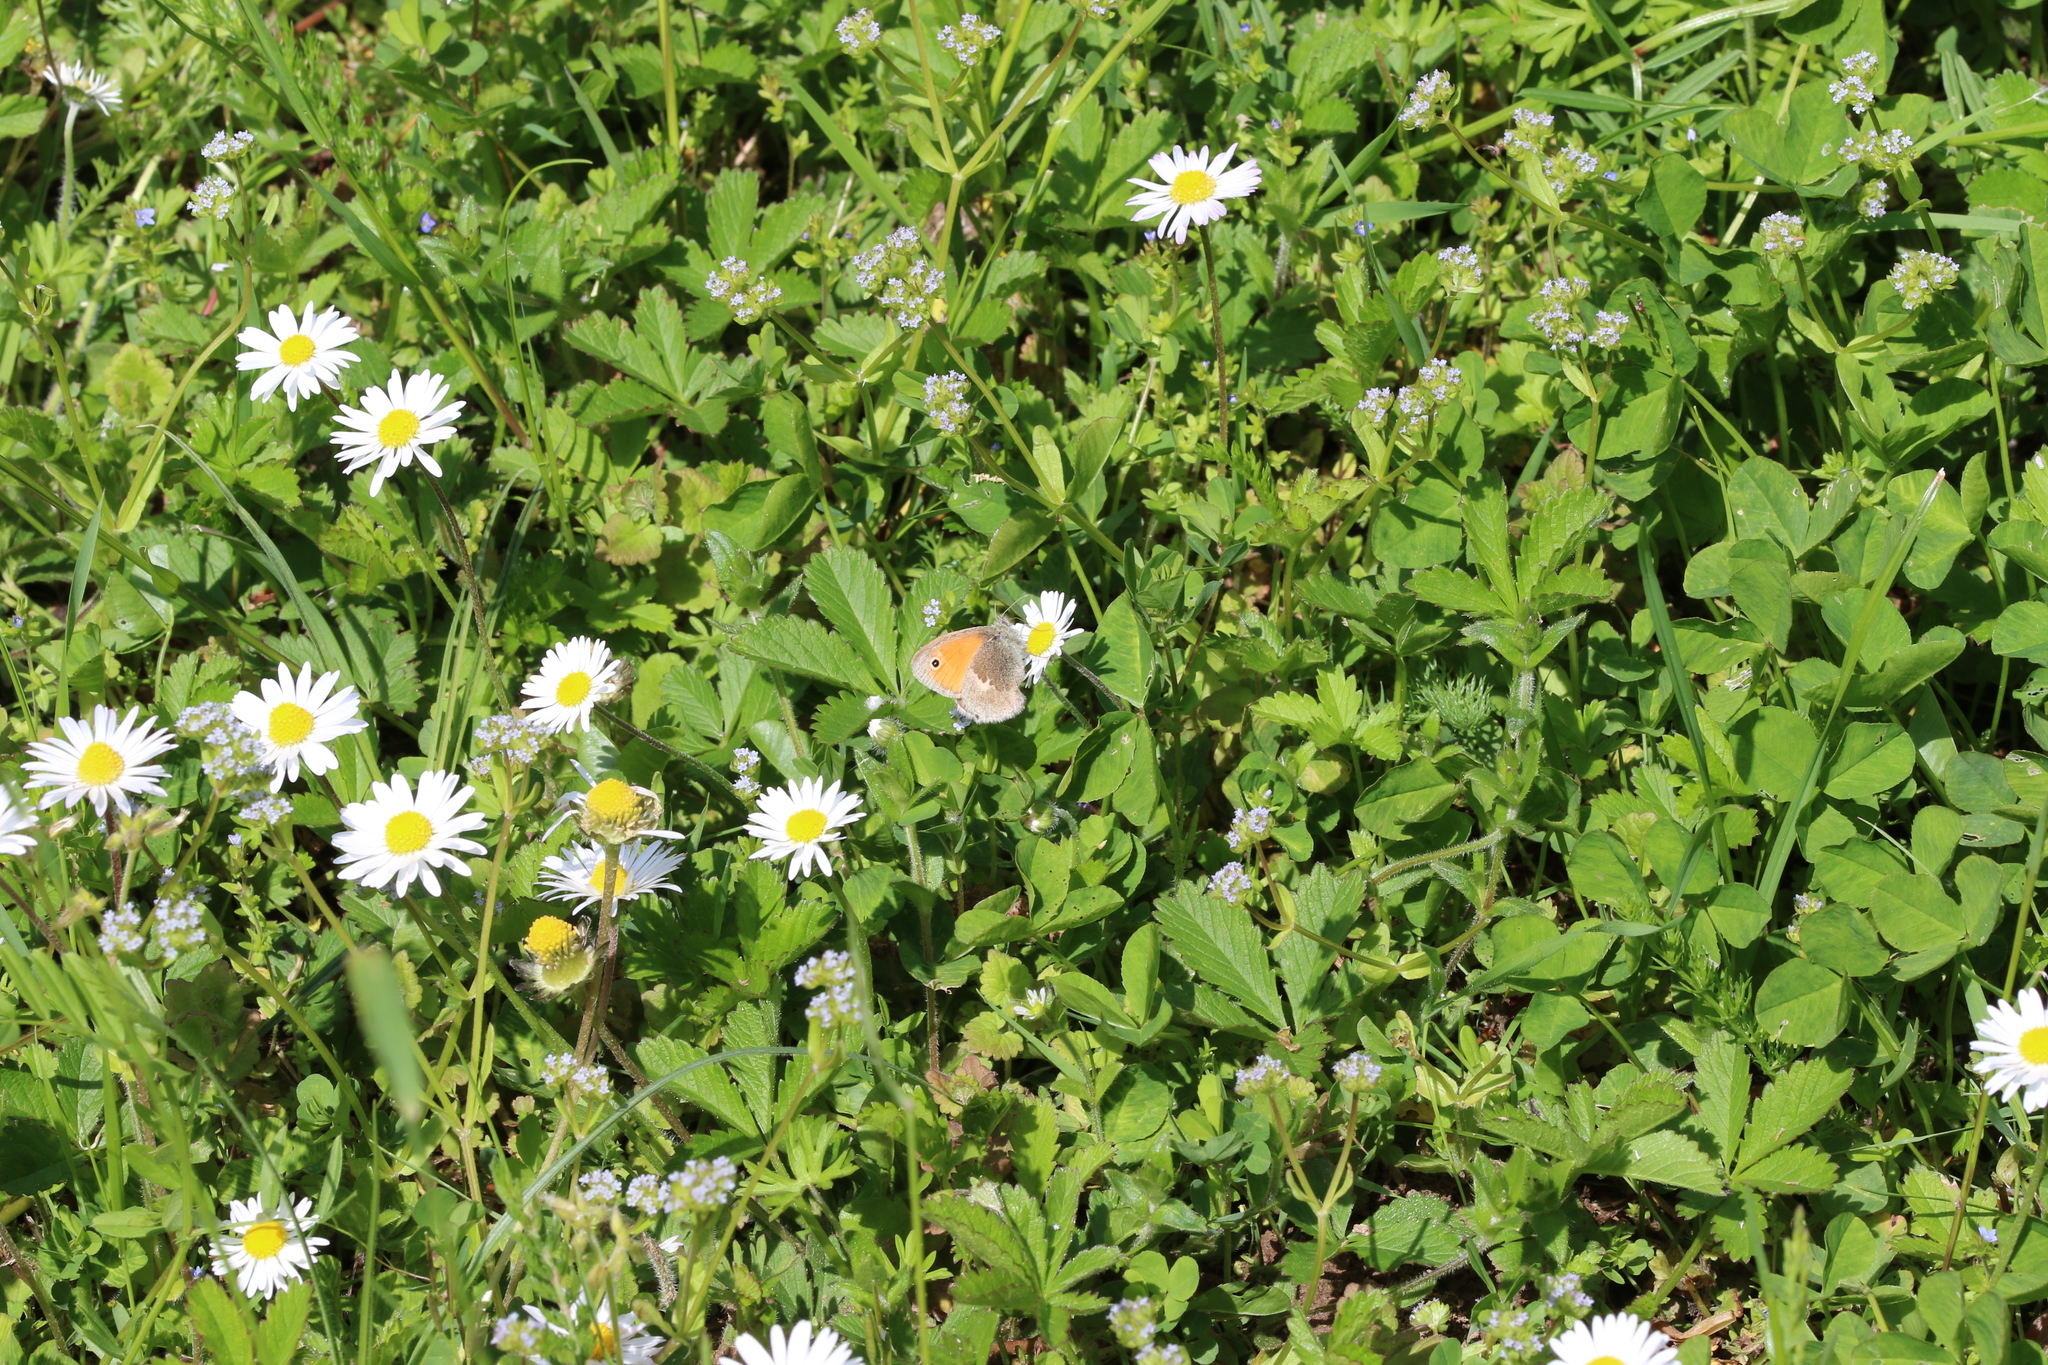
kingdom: Animalia
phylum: Arthropoda
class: Insecta
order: Lepidoptera
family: Nymphalidae
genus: Coenonympha
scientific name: Coenonympha pamphilus
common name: Small heath
